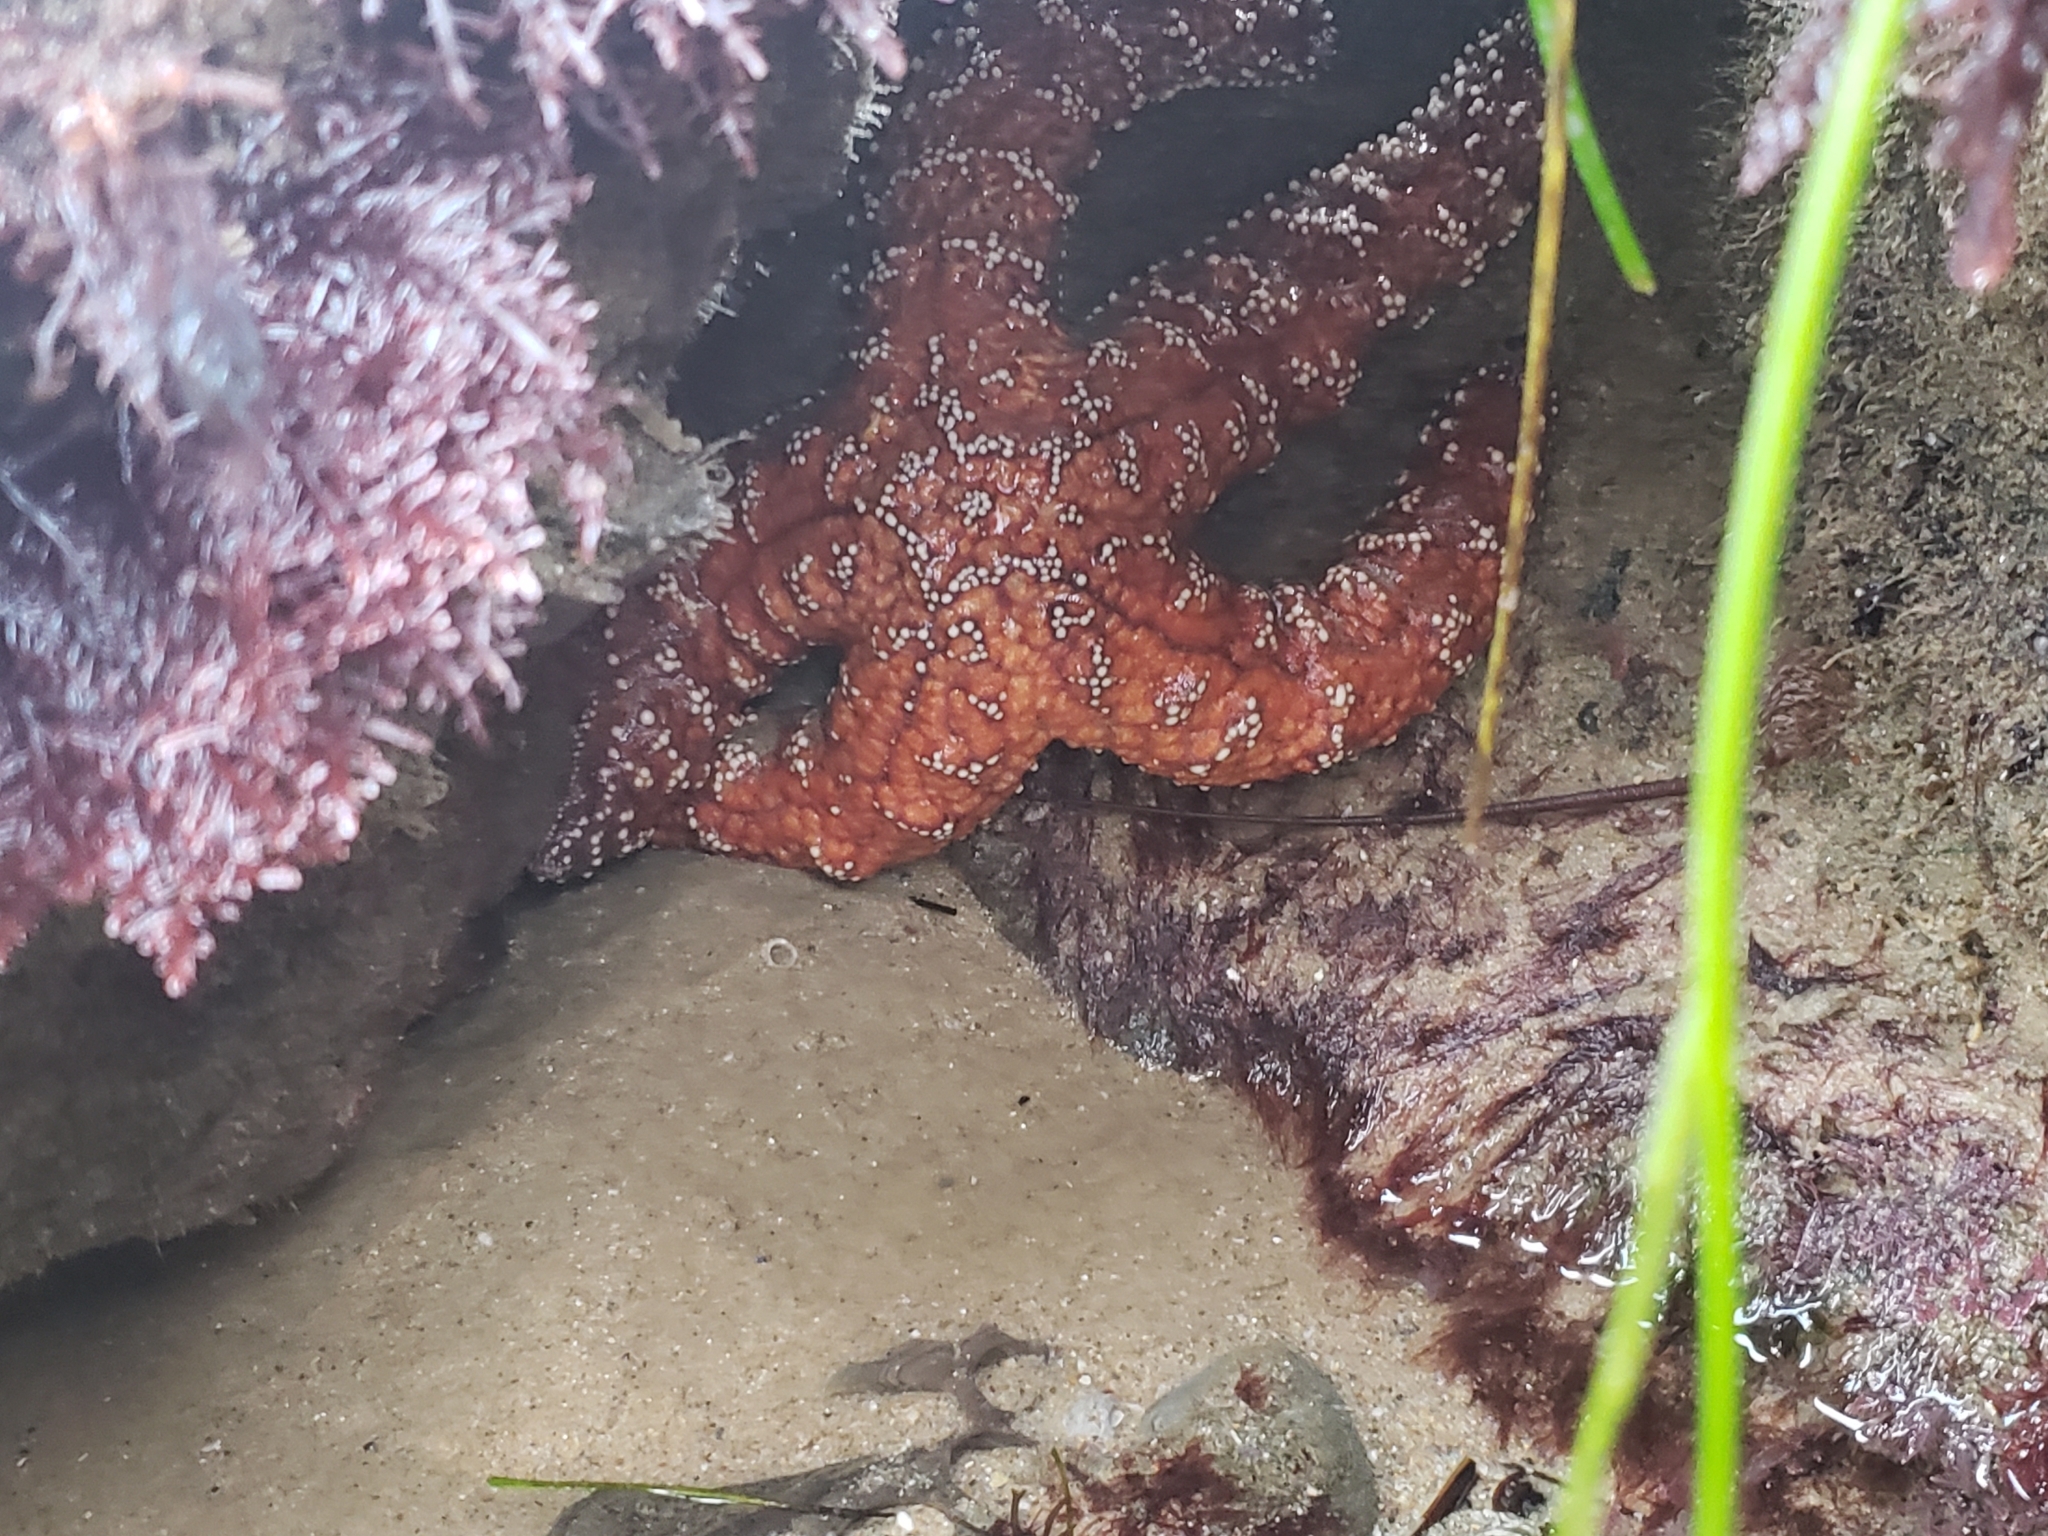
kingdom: Animalia
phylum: Echinodermata
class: Asteroidea
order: Forcipulatida
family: Asteriidae
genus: Pisaster
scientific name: Pisaster ochraceus
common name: Ochre stars
